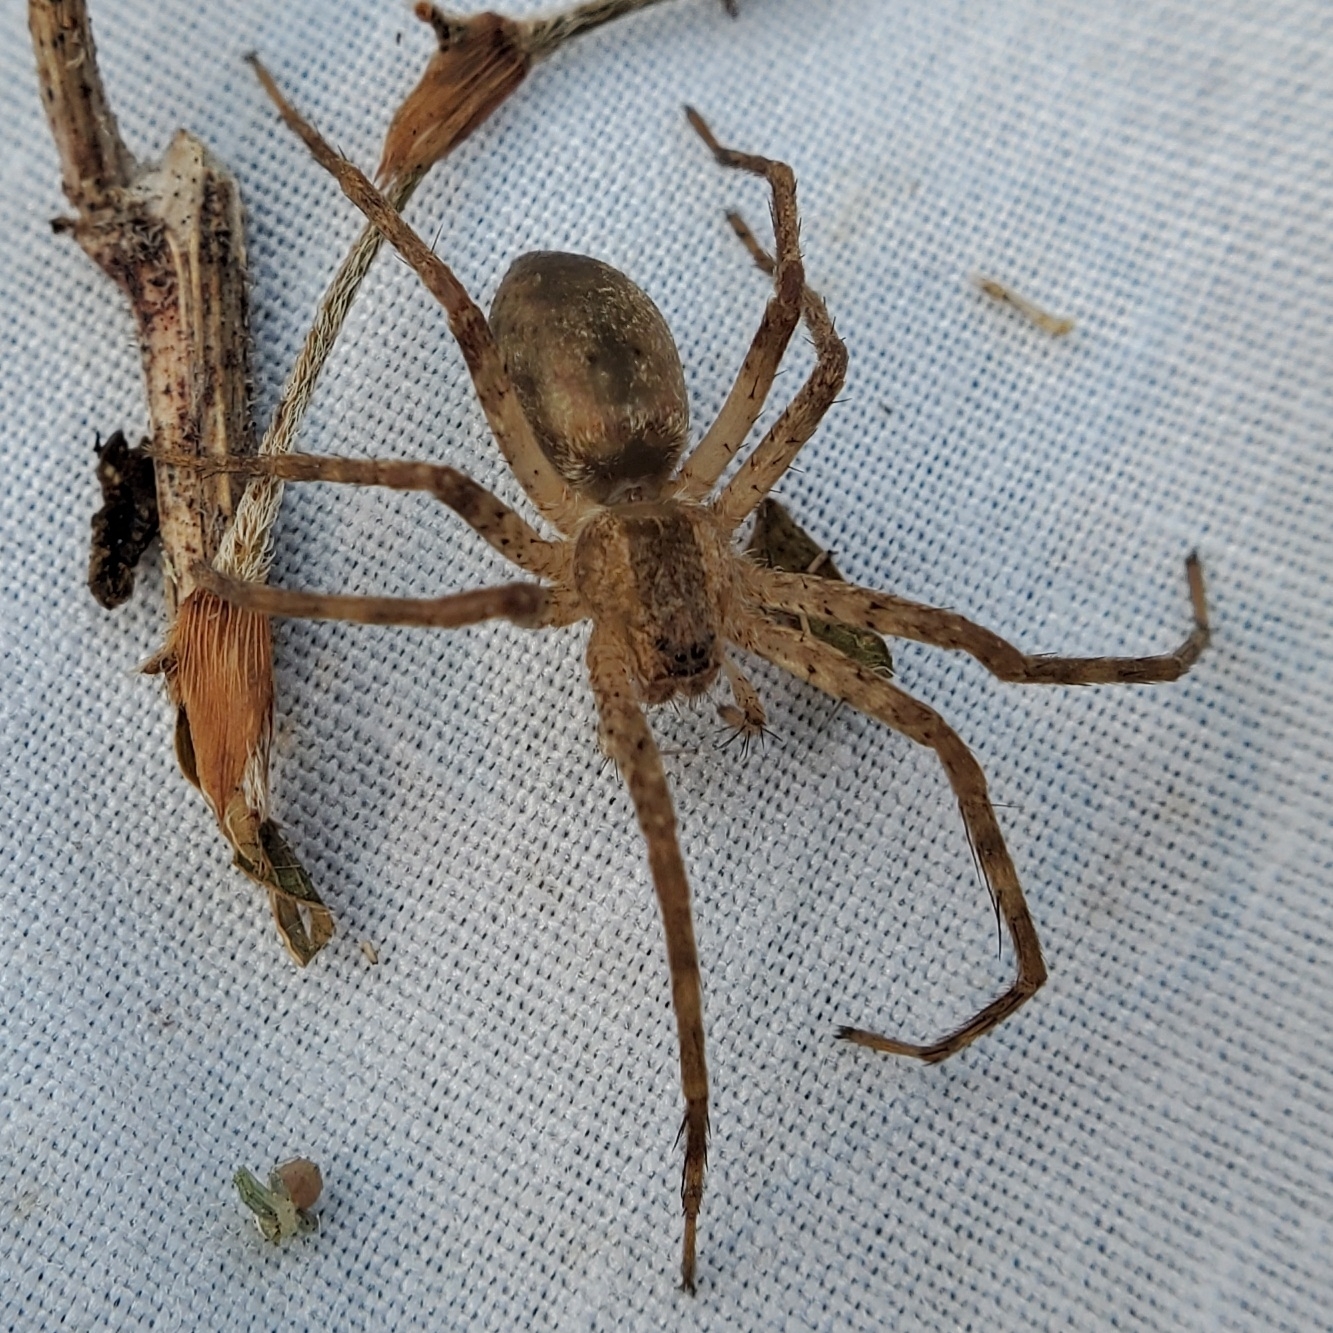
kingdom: Animalia
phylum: Arthropoda
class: Arachnida
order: Araneae
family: Pisauridae
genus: Pisaurina
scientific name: Pisaurina mira
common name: American nursery web spider
